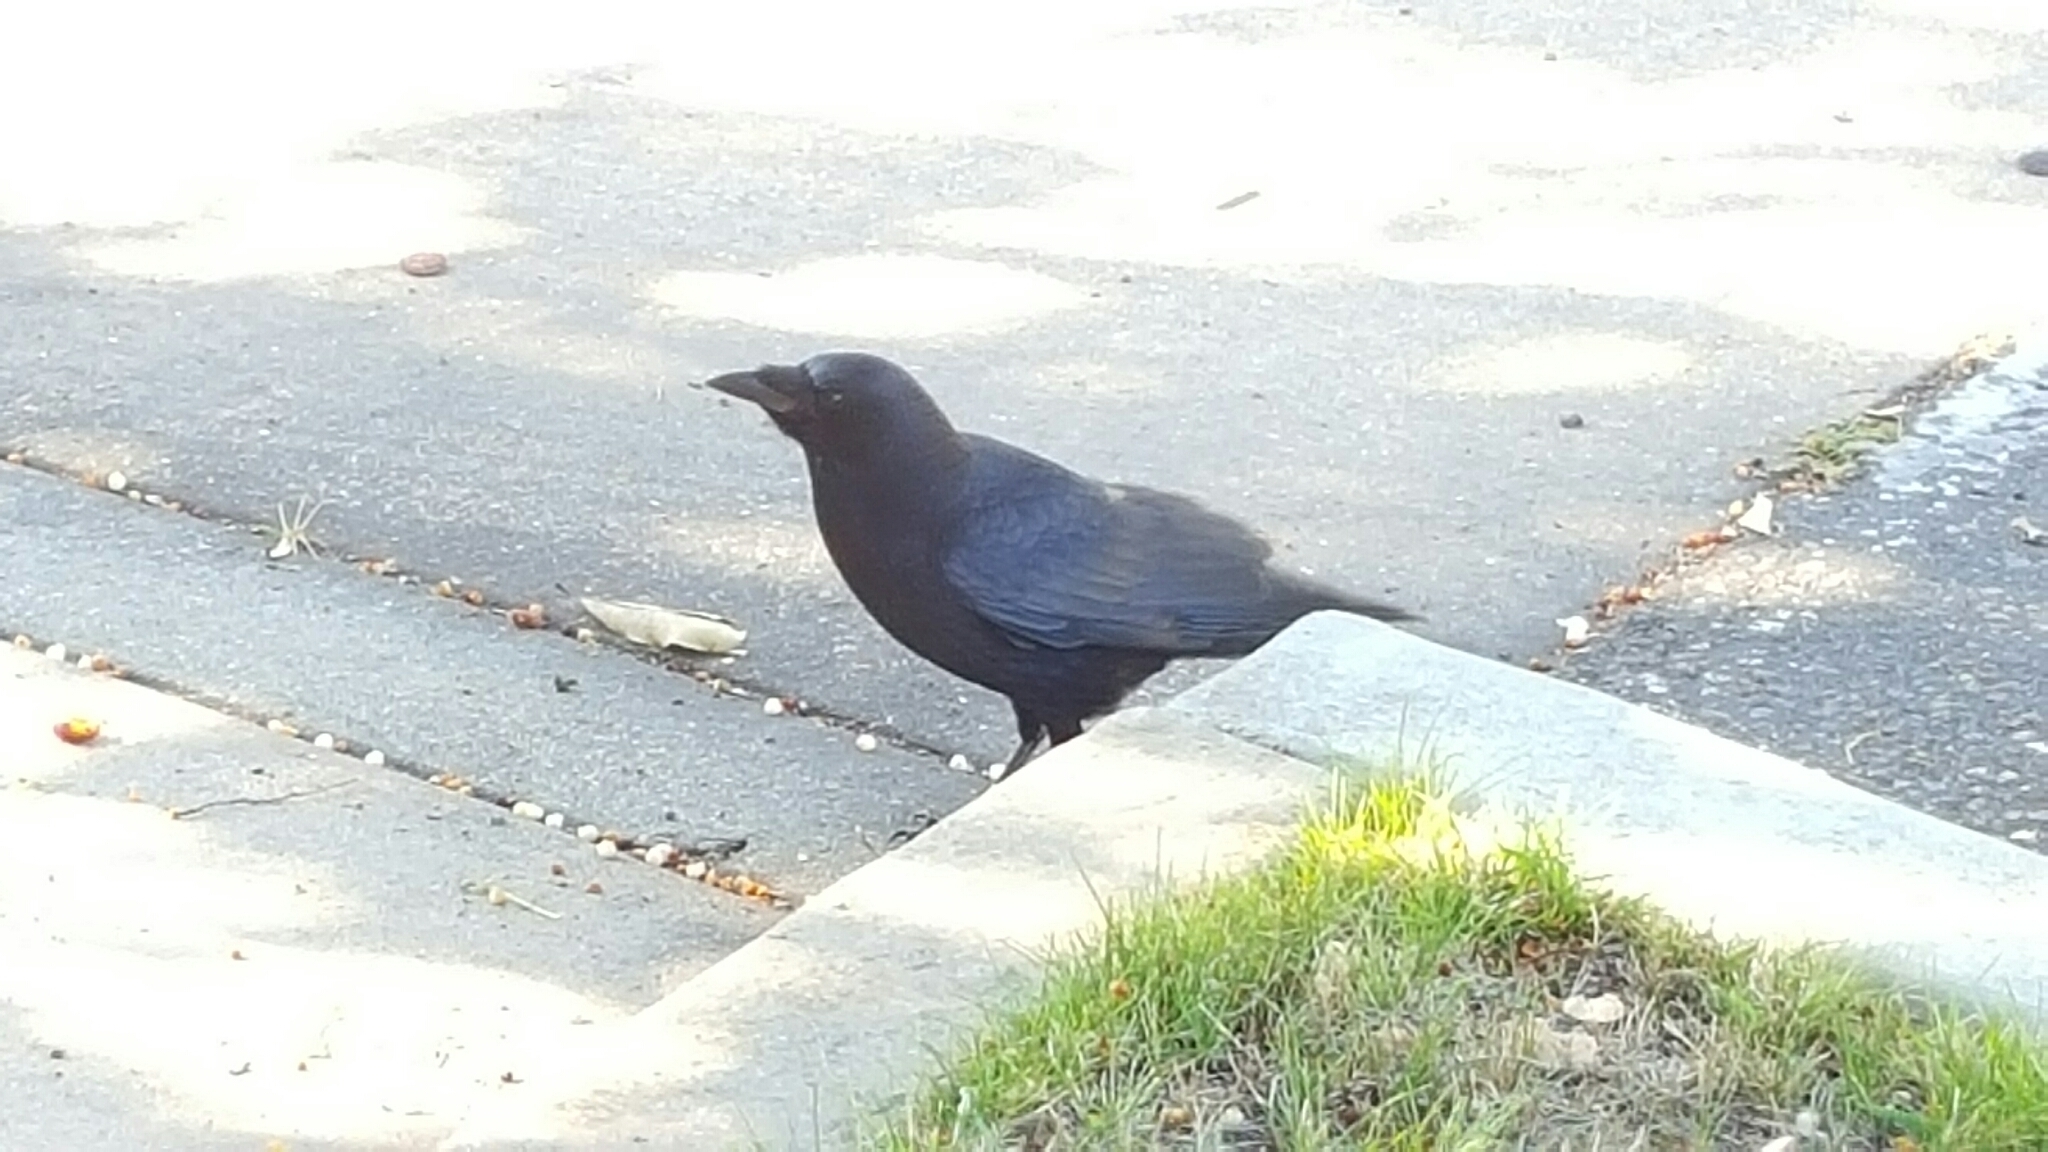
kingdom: Animalia
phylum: Chordata
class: Aves
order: Passeriformes
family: Corvidae
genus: Corvus
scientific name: Corvus brachyrhynchos
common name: American crow
